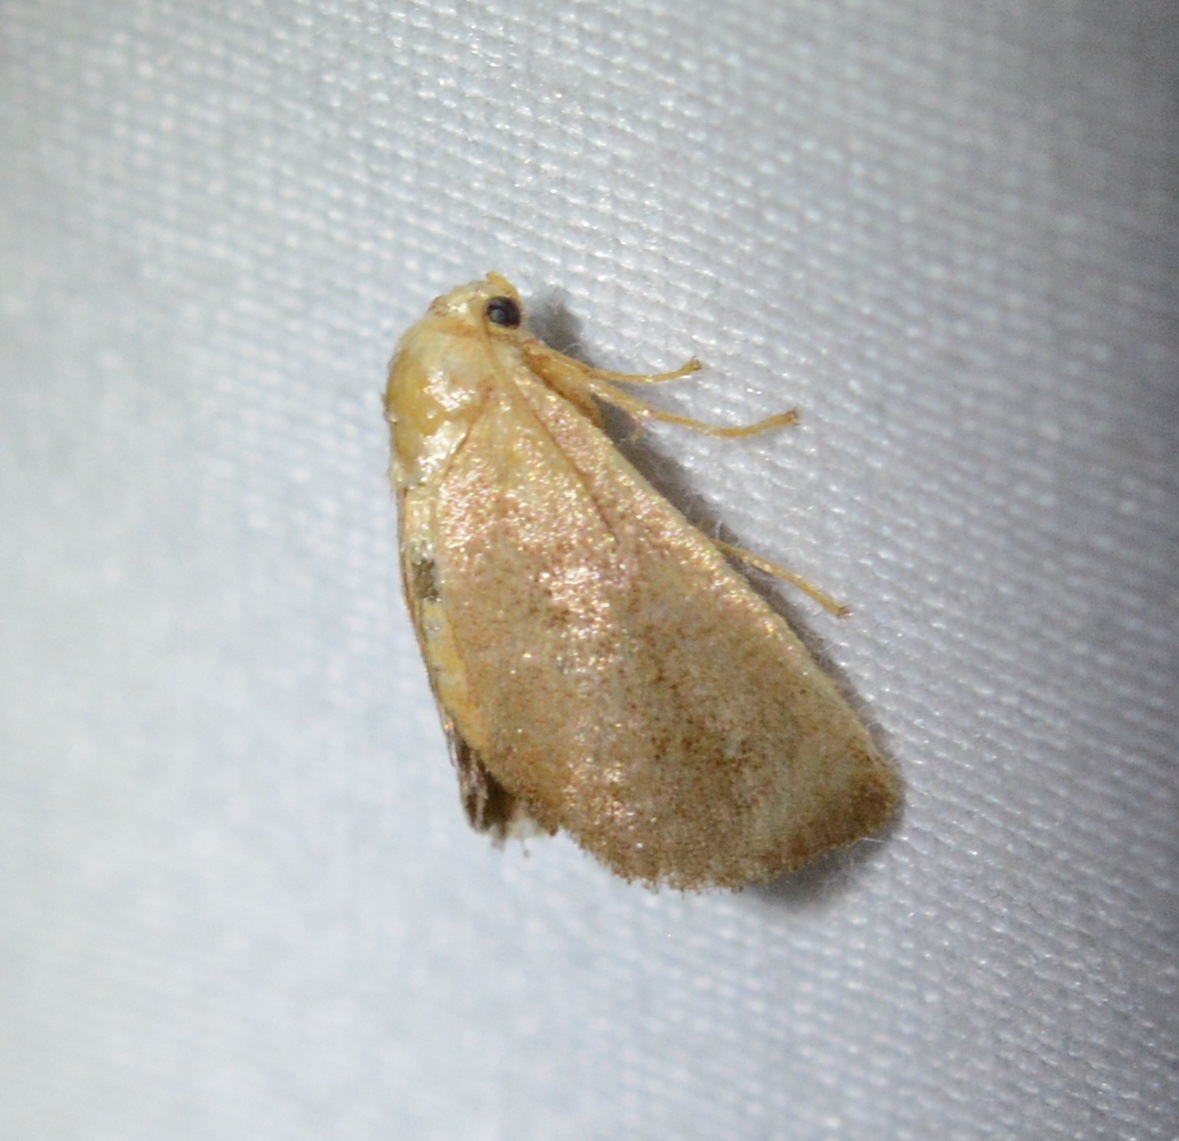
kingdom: Animalia
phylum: Arthropoda
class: Insecta
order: Lepidoptera
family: Limacodidae
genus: Isa
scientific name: Isa textula
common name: Crowned slug moth
